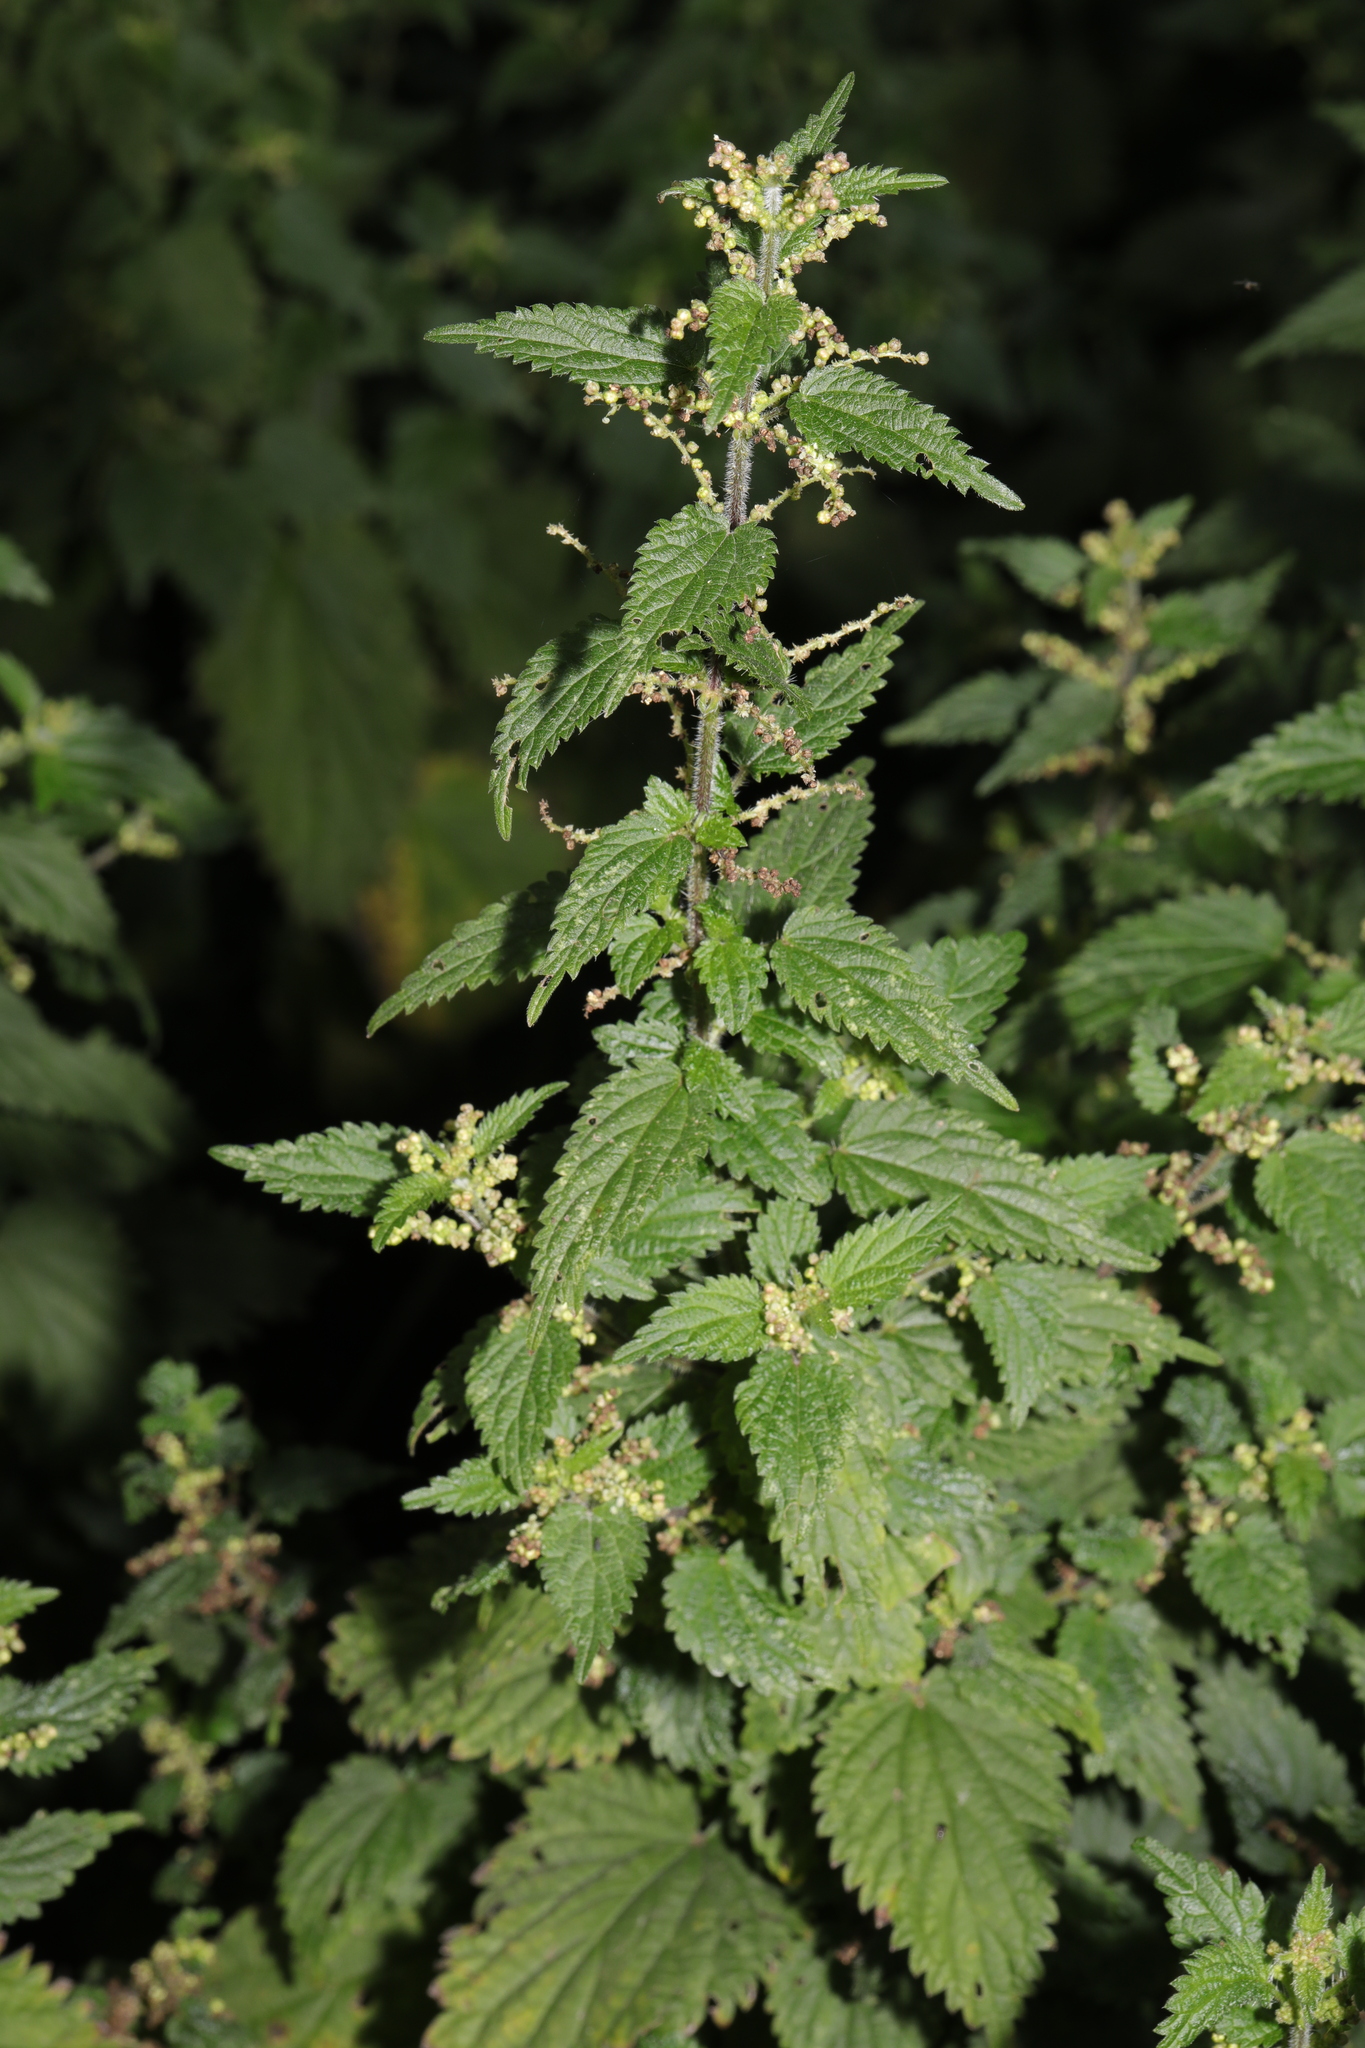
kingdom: Plantae
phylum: Tracheophyta
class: Magnoliopsida
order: Rosales
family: Urticaceae
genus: Urtica
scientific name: Urtica dioica
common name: Common nettle
